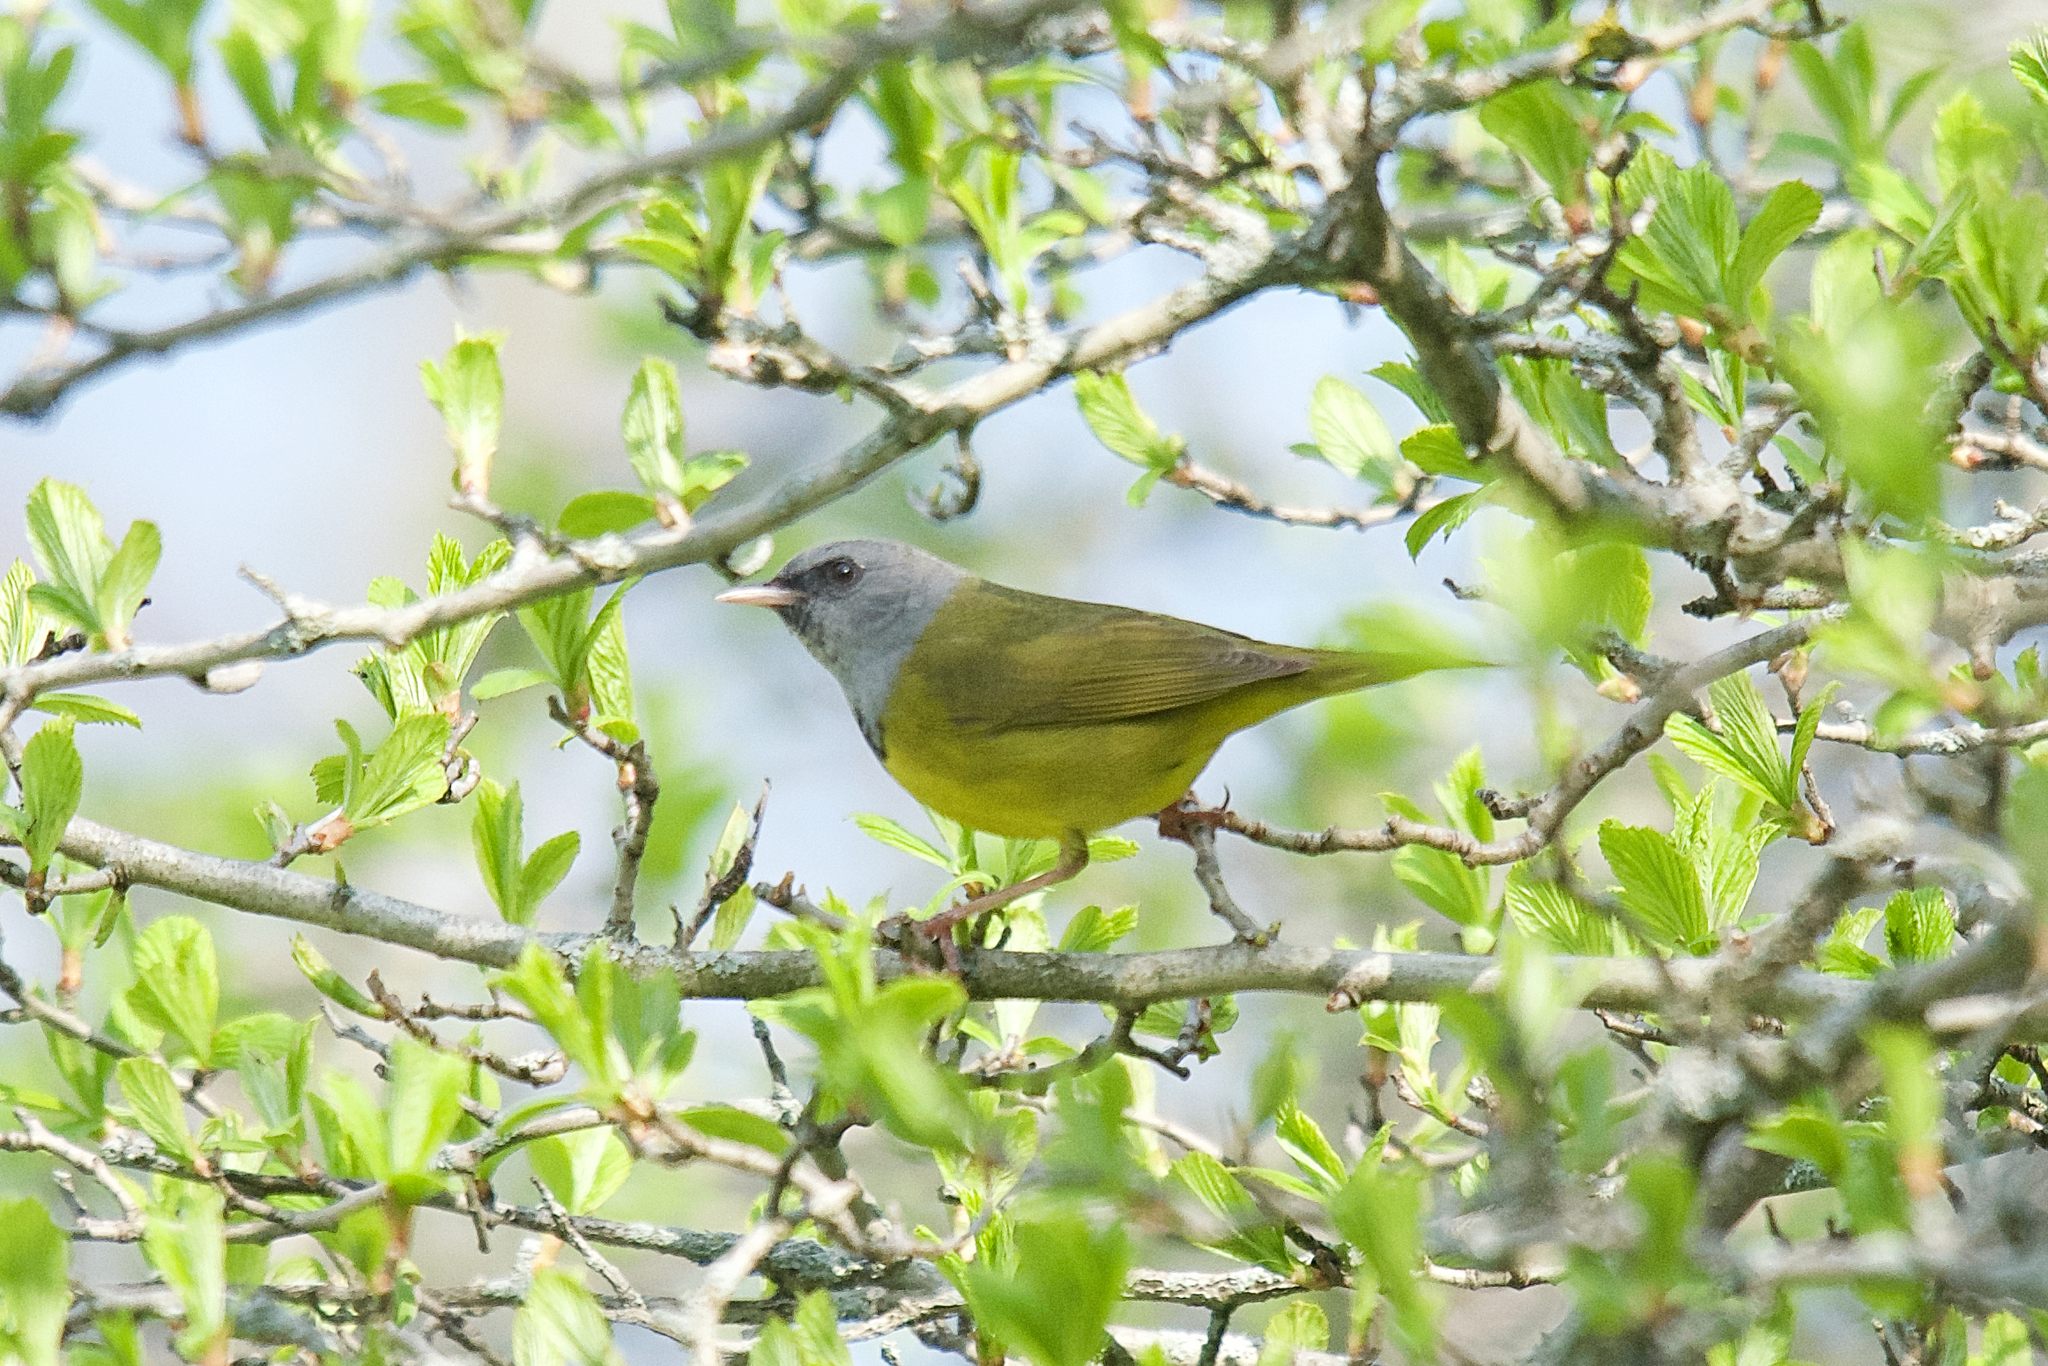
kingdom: Animalia
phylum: Chordata
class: Aves
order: Passeriformes
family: Parulidae
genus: Geothlypis
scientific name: Geothlypis philadelphia
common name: Mourning warbler
